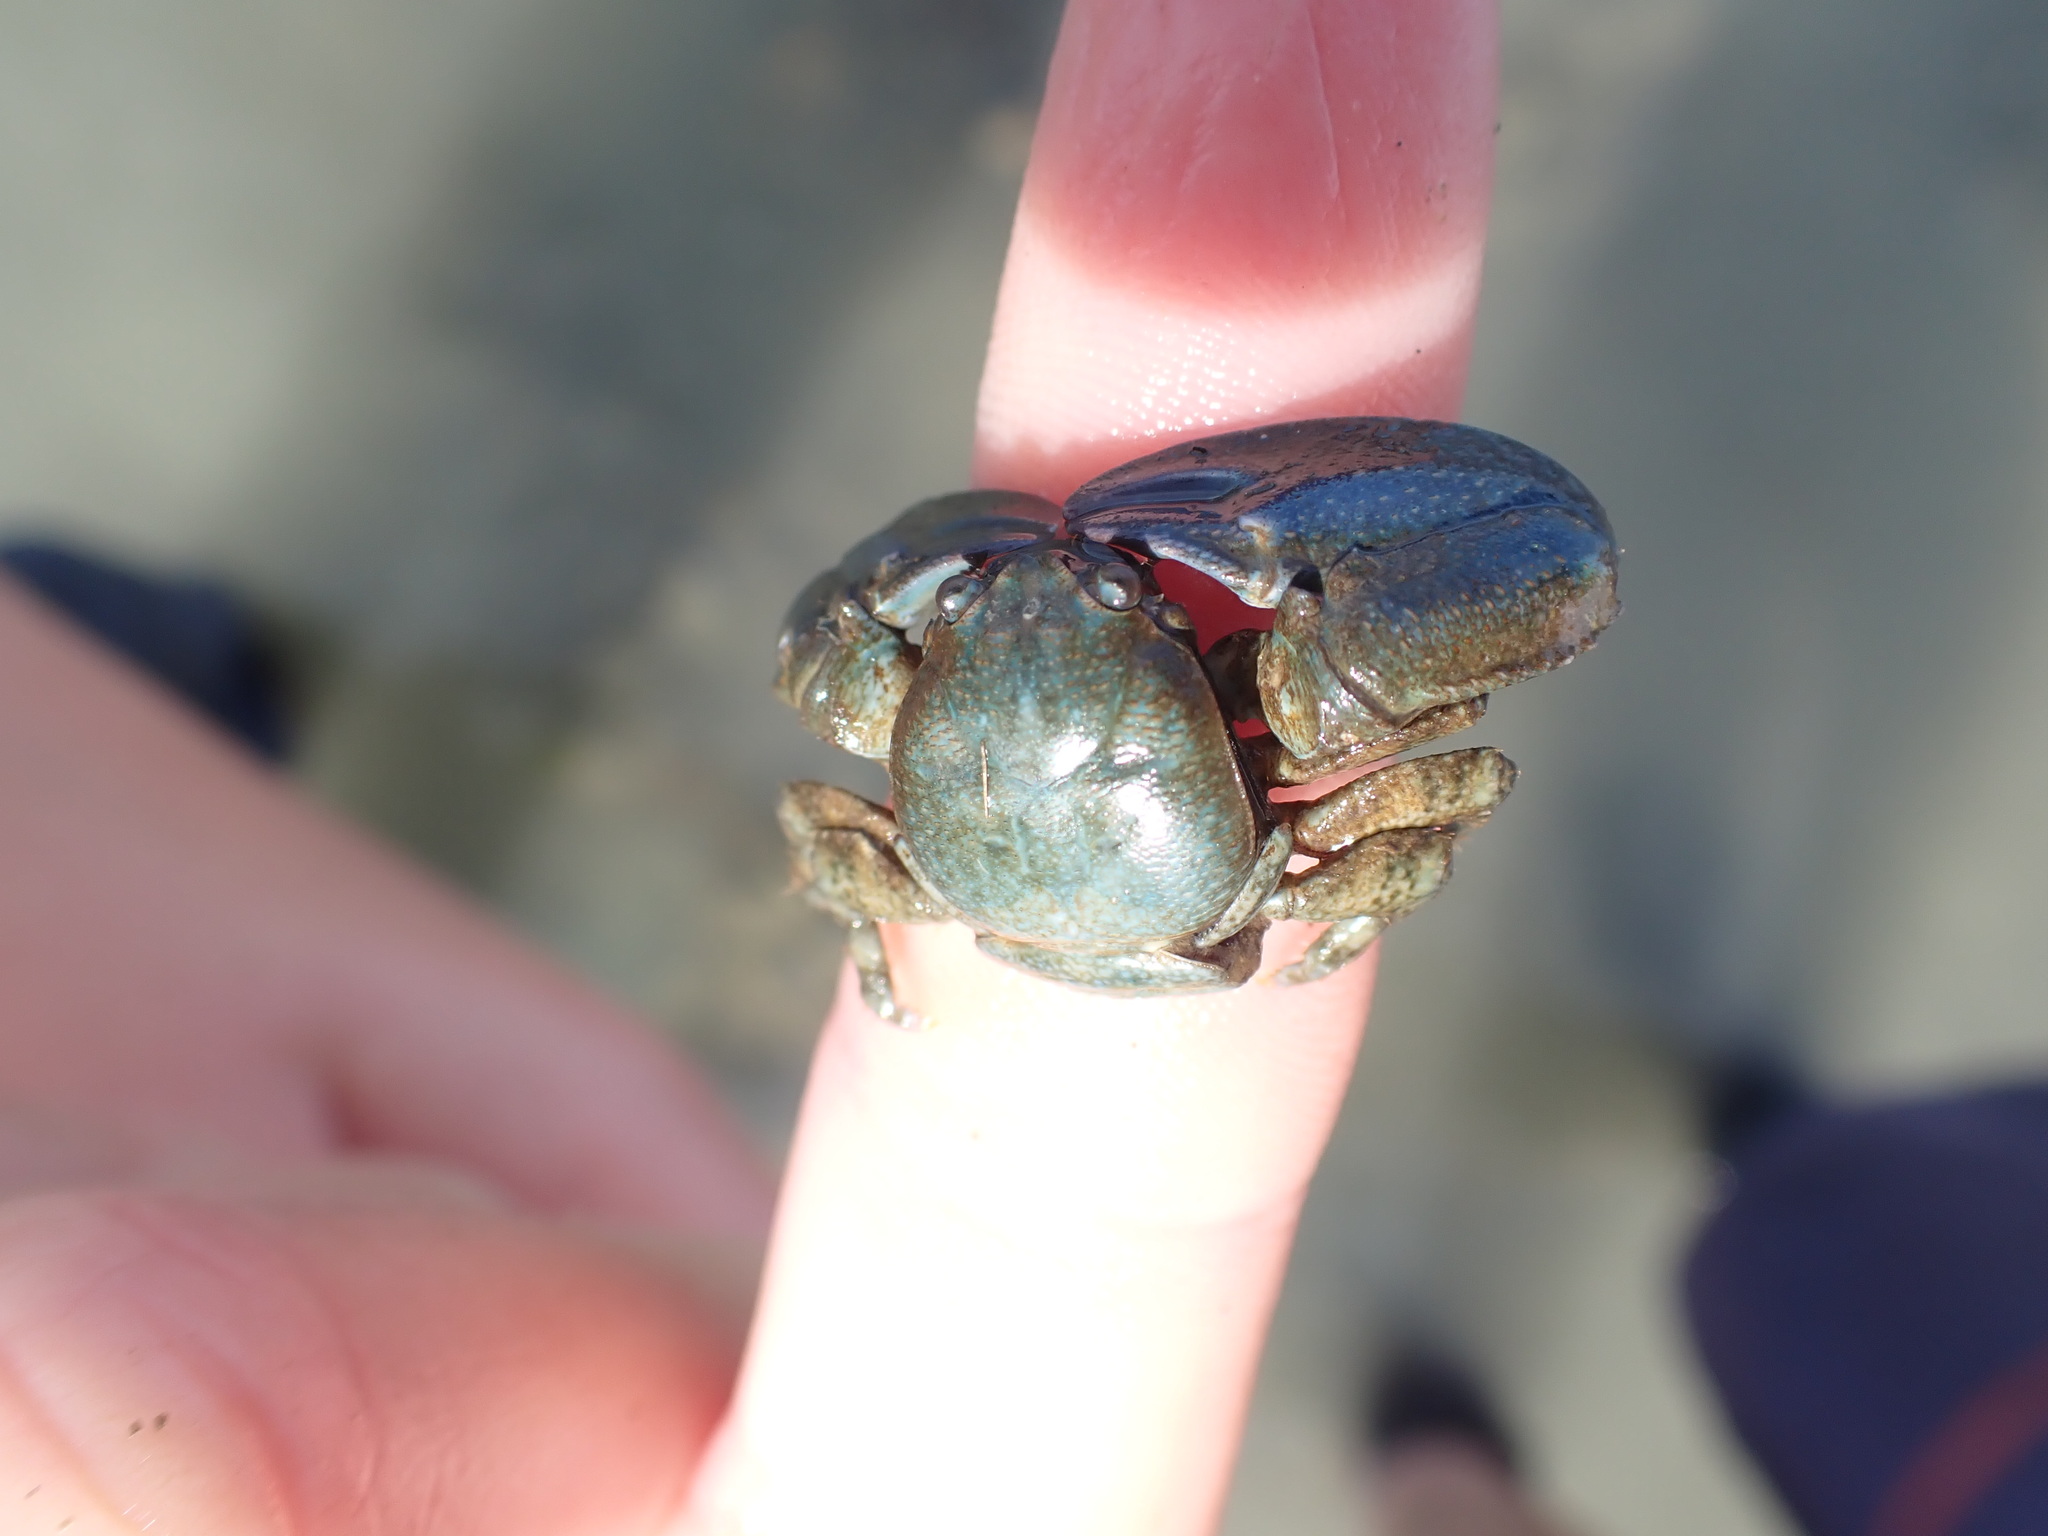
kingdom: Animalia
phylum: Arthropoda
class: Malacostraca
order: Decapoda
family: Porcellanidae
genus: Petrolisthes
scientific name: Petrolisthes elongatus
